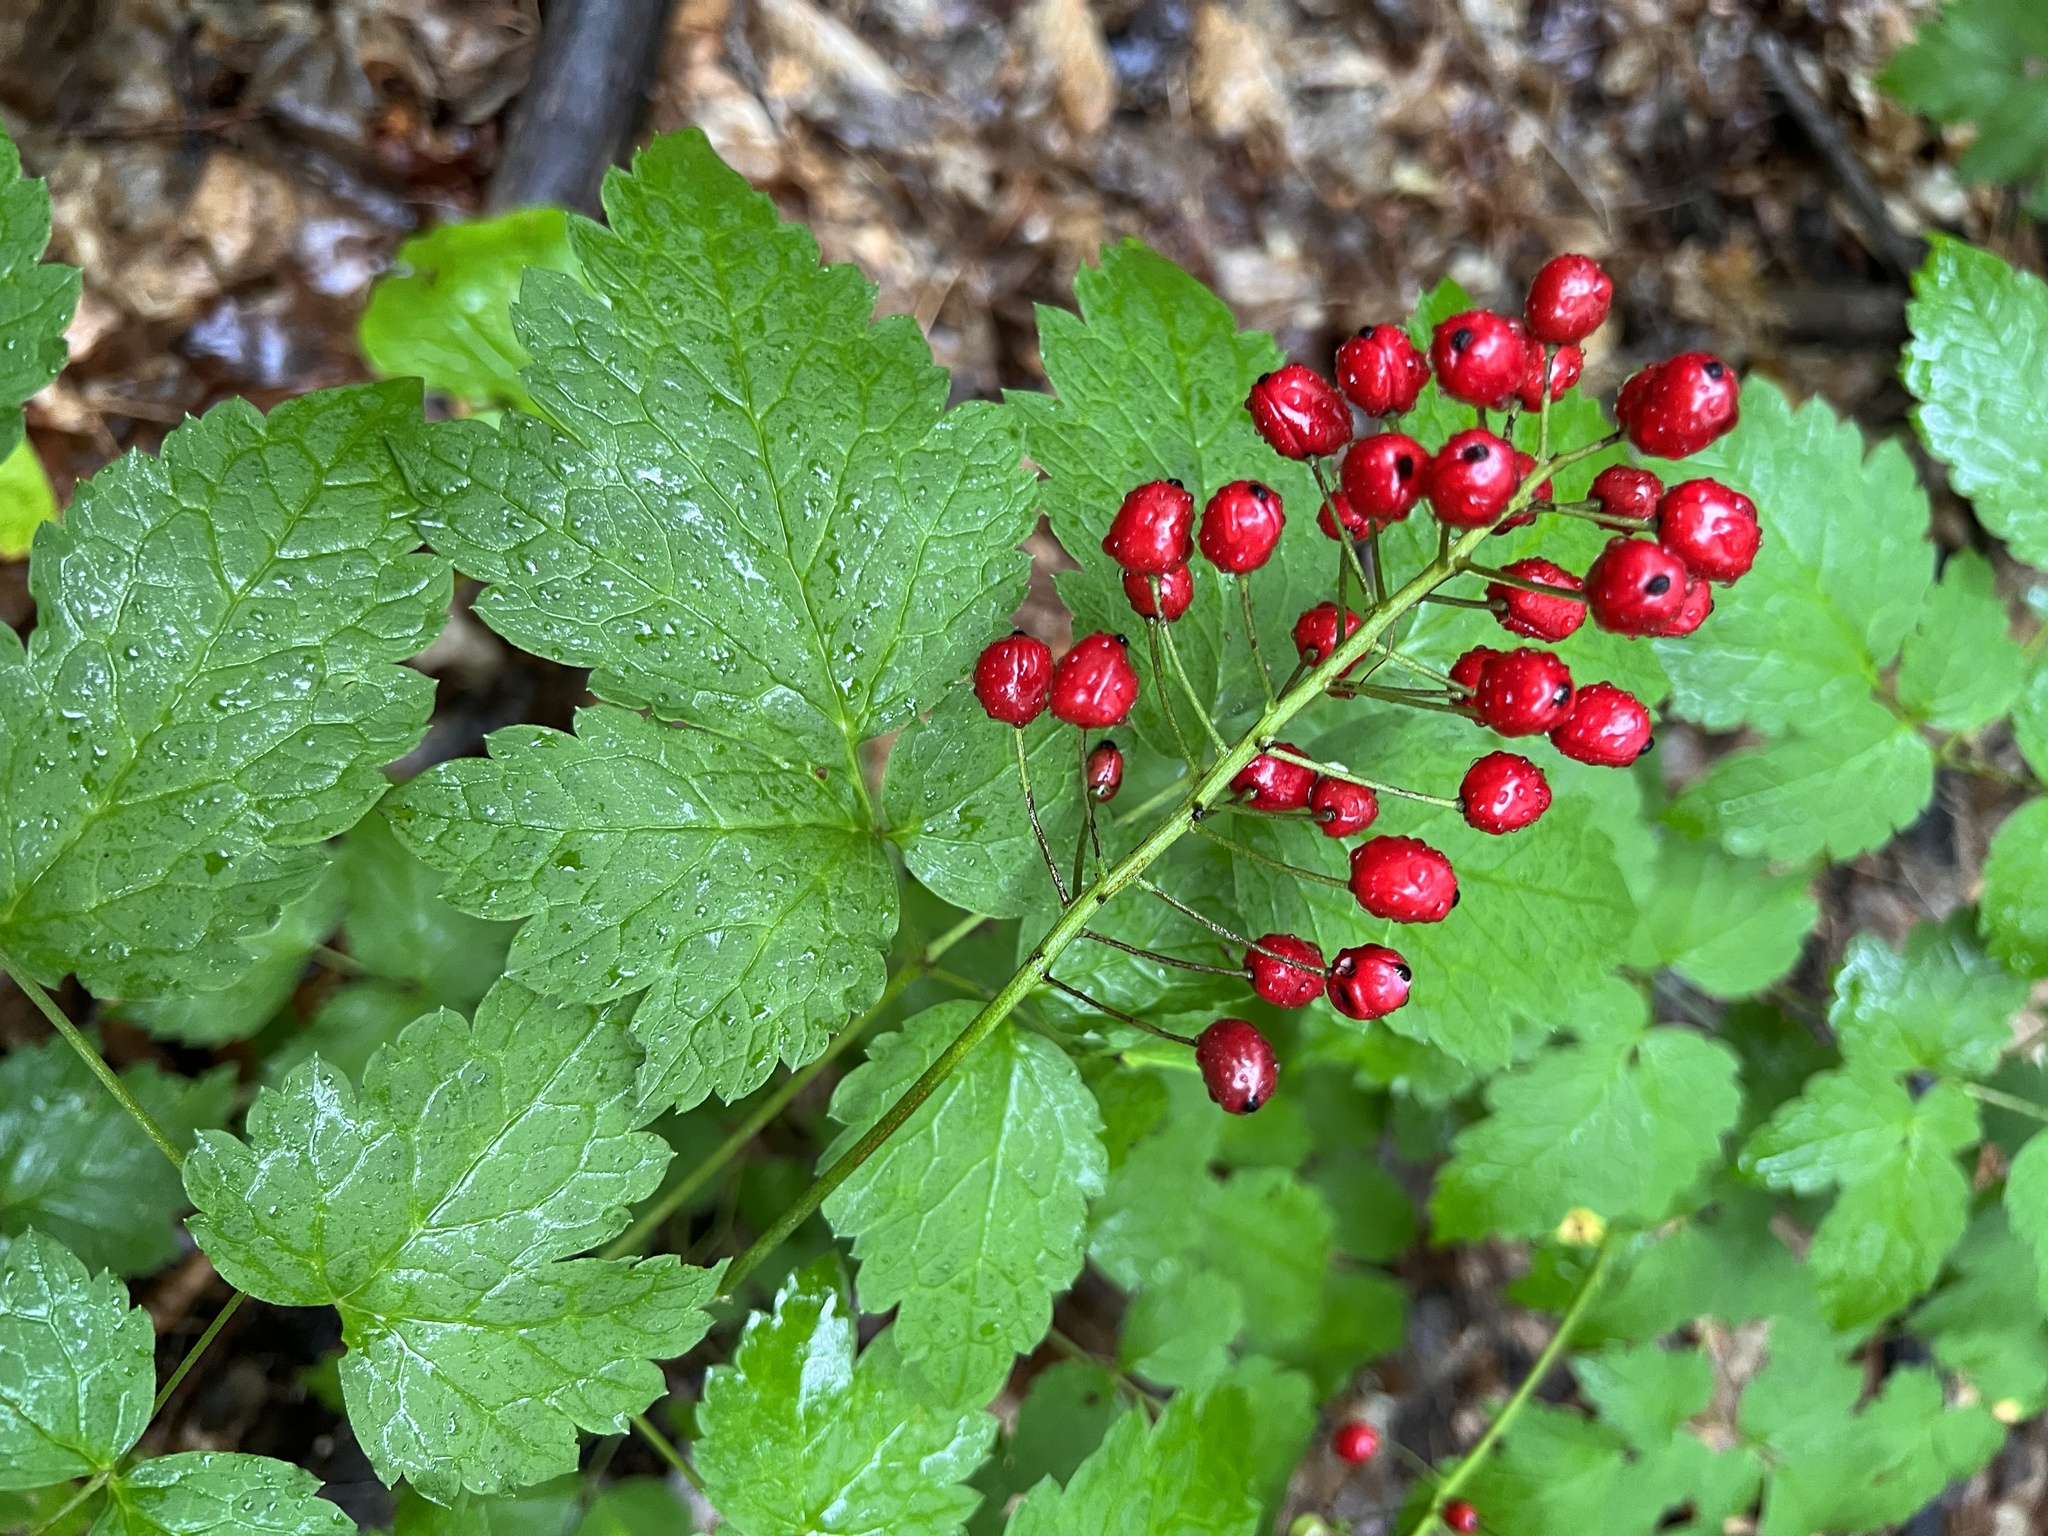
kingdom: Plantae
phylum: Tracheophyta
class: Magnoliopsida
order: Ranunculales
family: Ranunculaceae
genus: Actaea
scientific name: Actaea rubra
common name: Red baneberry
